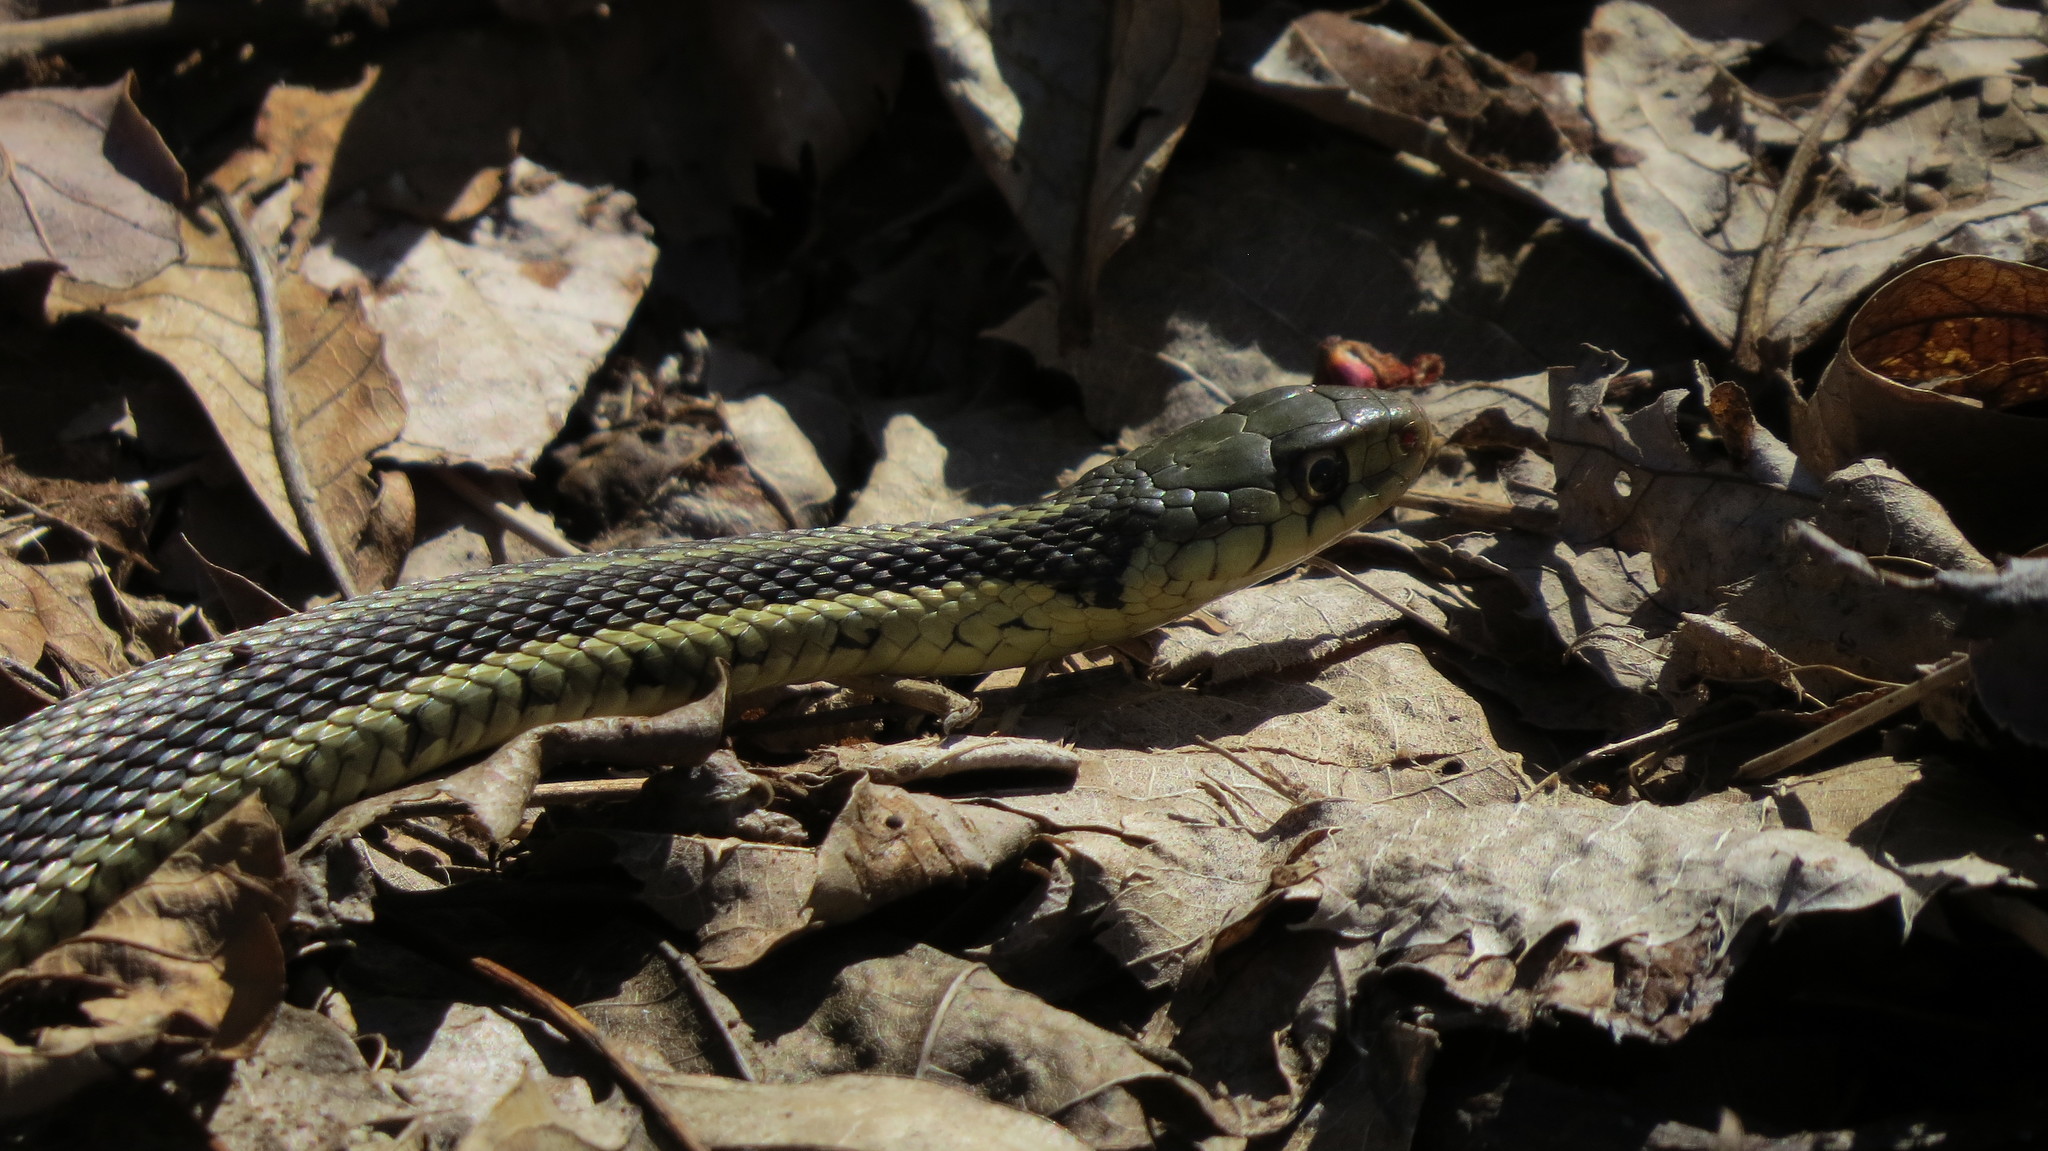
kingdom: Animalia
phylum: Chordata
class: Squamata
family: Colubridae
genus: Thamnophis
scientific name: Thamnophis sirtalis
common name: Common garter snake
